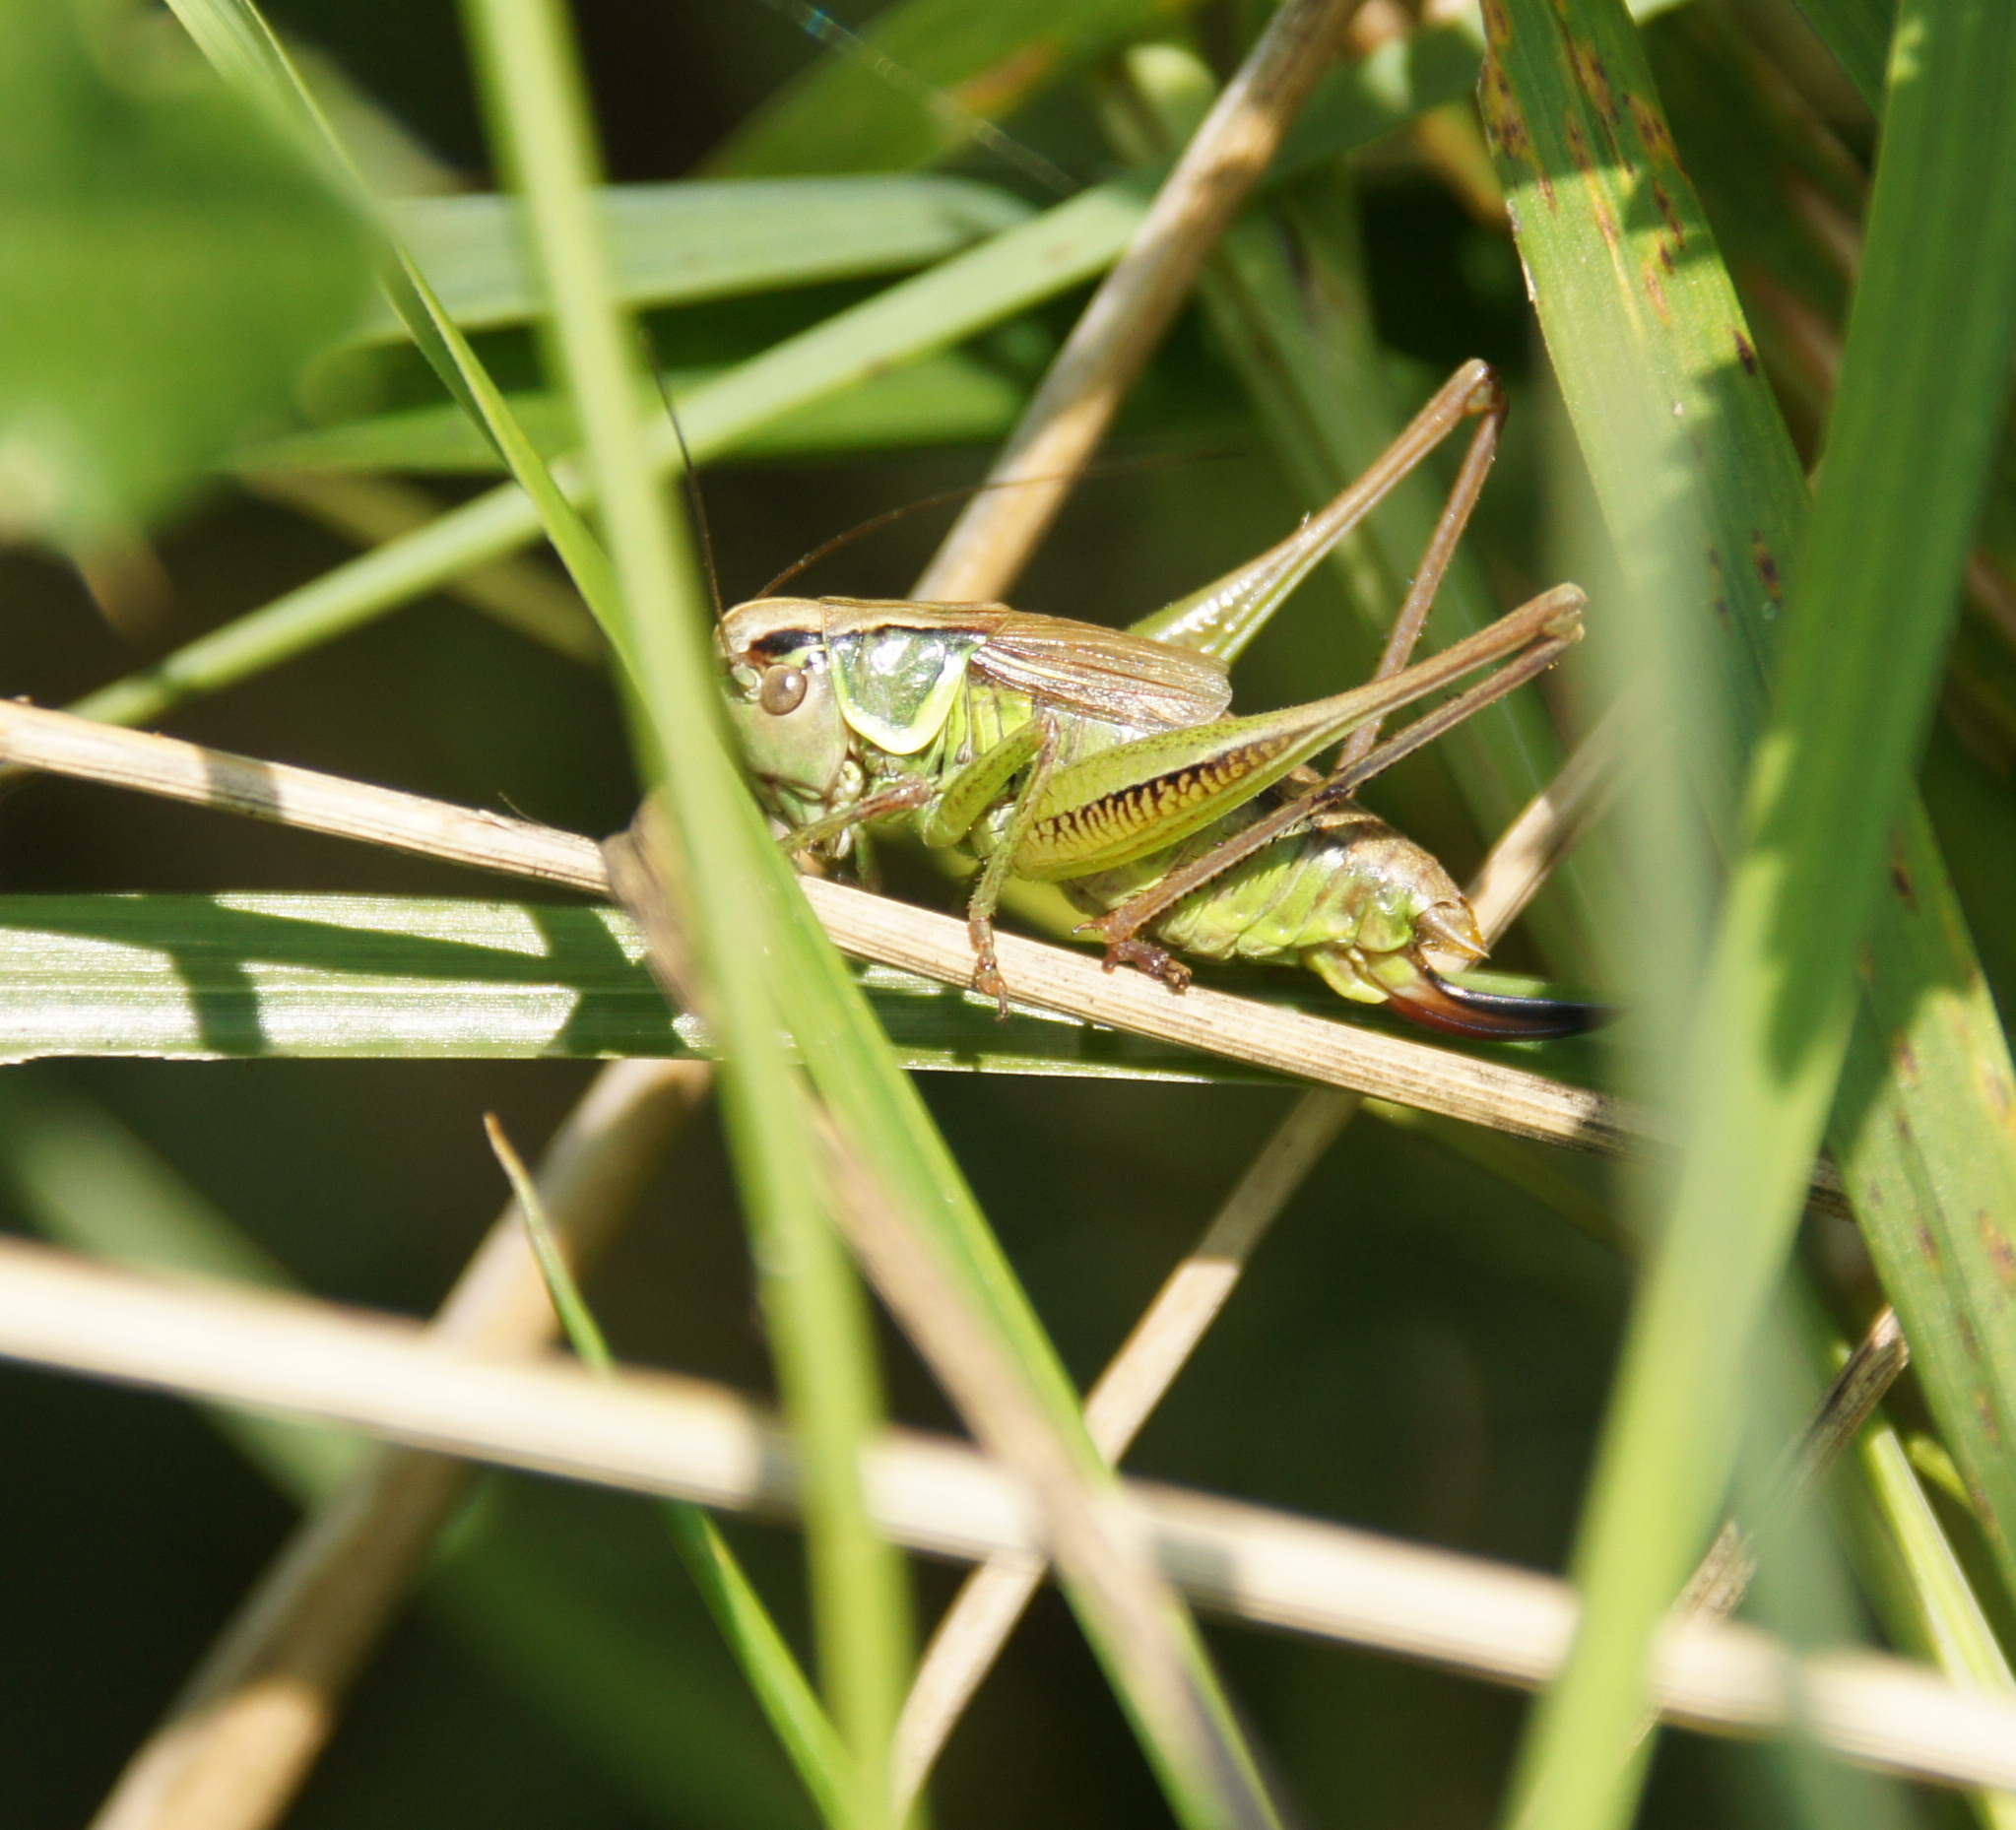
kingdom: Animalia
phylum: Arthropoda
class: Insecta
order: Orthoptera
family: Tettigoniidae
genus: Roeseliana
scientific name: Roeseliana roeselii
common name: Roesel's bush cricket
